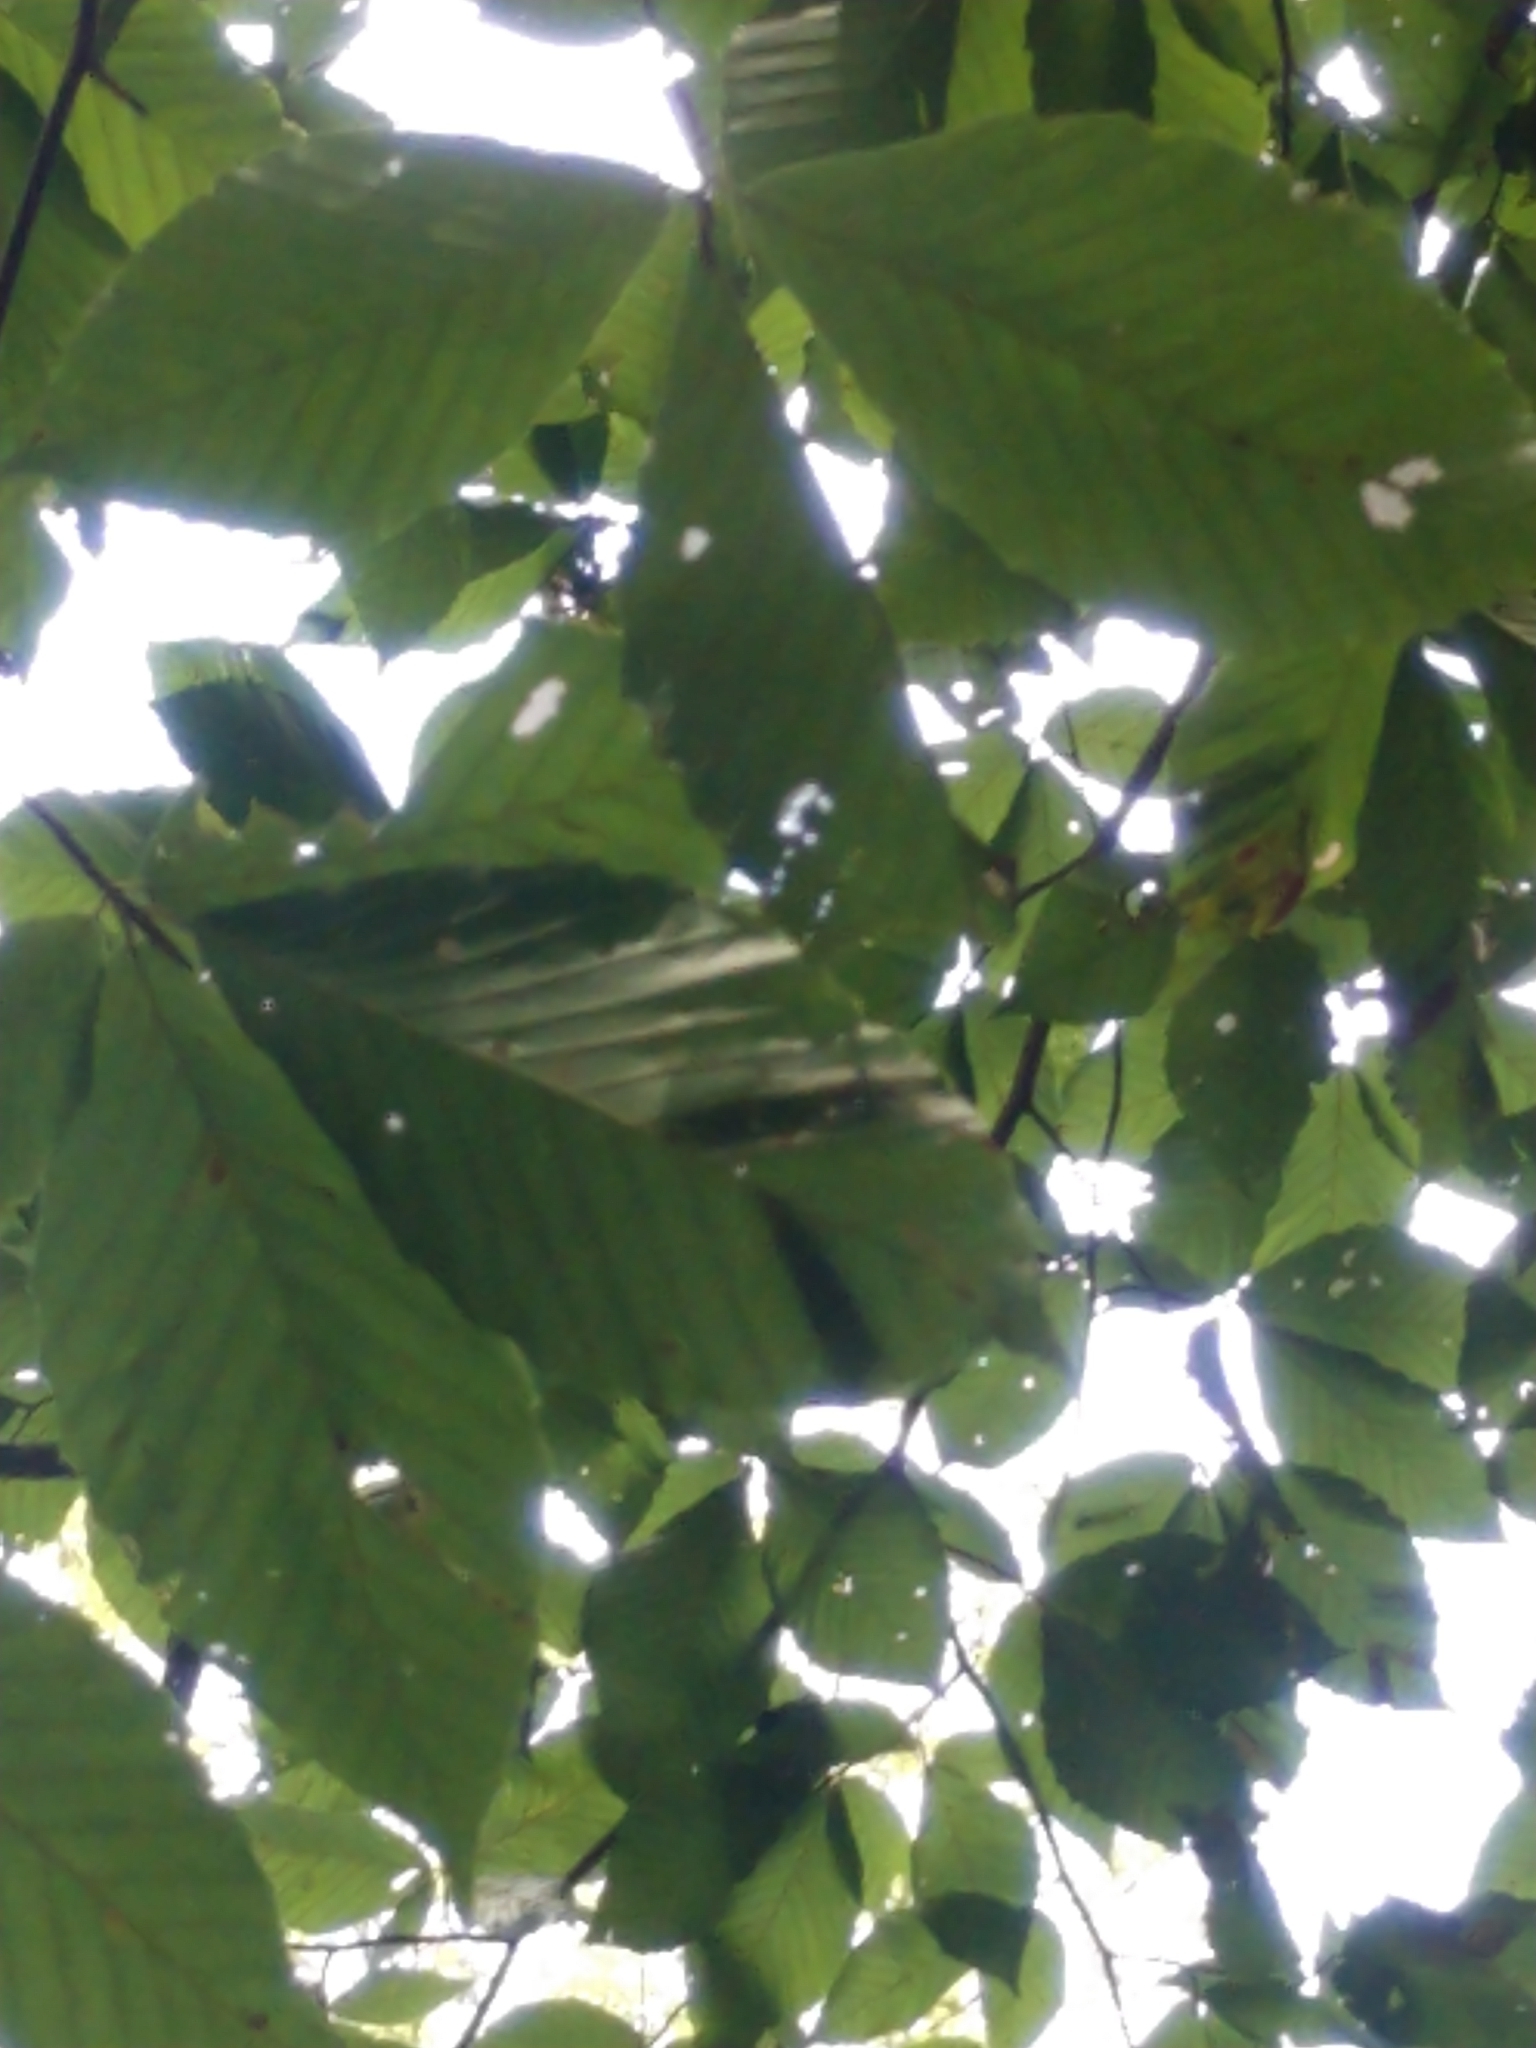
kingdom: Animalia
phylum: Nematoda
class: Chromadorea
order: Rhabditida
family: Anguinidae
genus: Litylenchus
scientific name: Litylenchus crenatae
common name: Beech leaf disease
